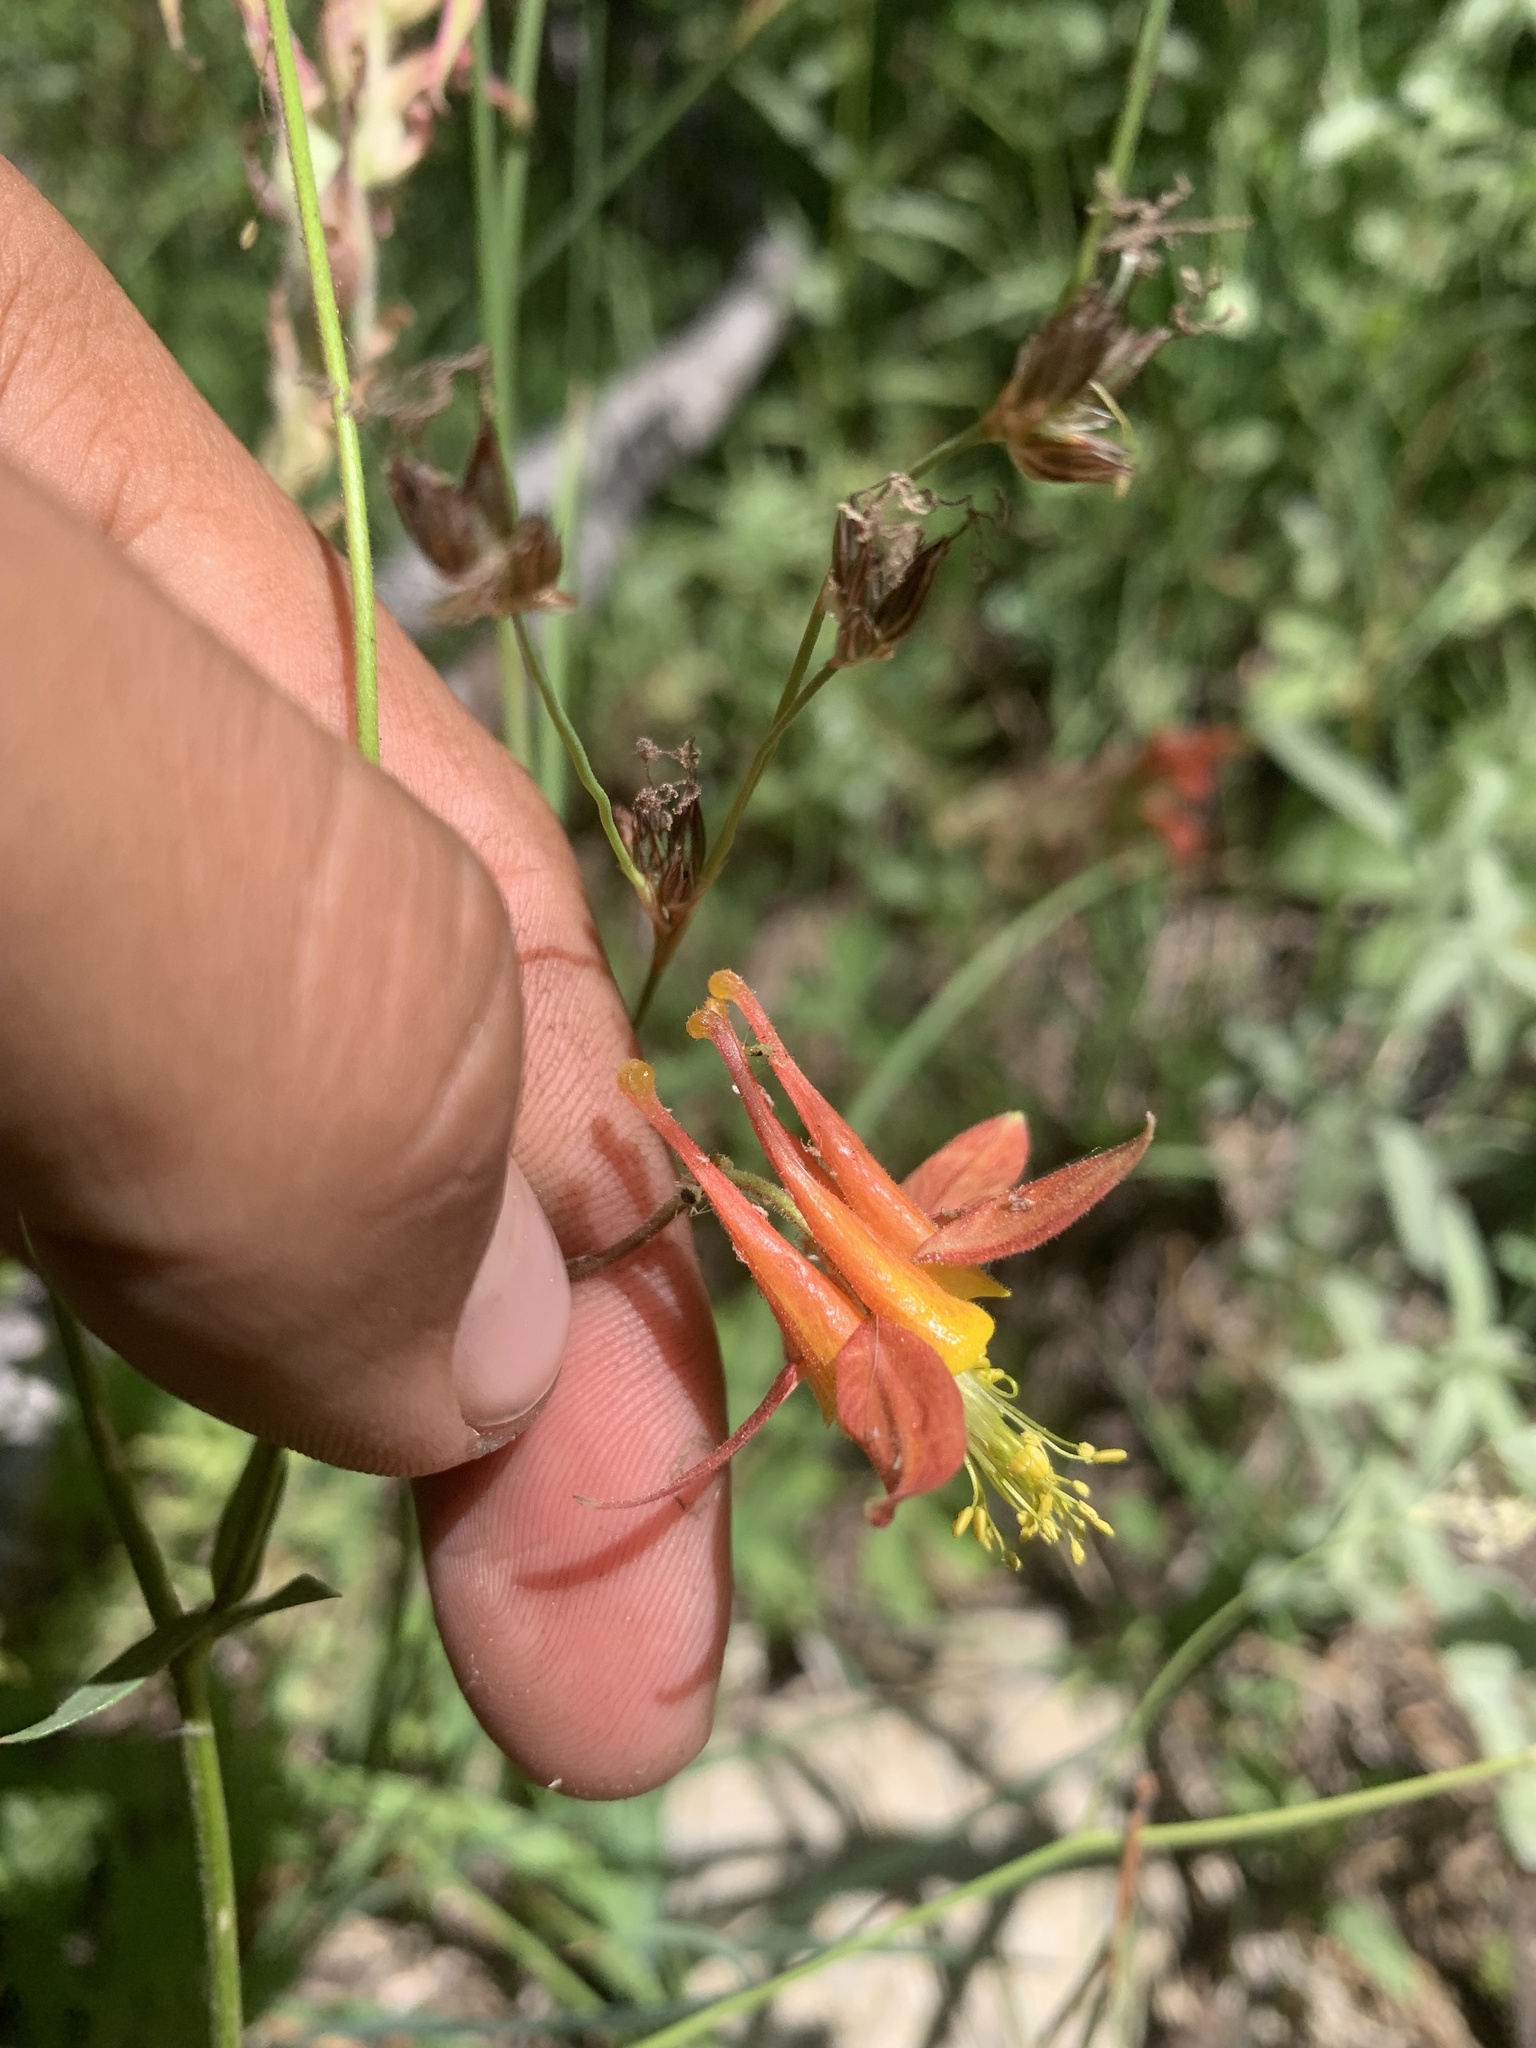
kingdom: Plantae
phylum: Tracheophyta
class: Magnoliopsida
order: Ranunculales
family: Ranunculaceae
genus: Aquilegia
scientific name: Aquilegia formosa
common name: Sitka columbine
